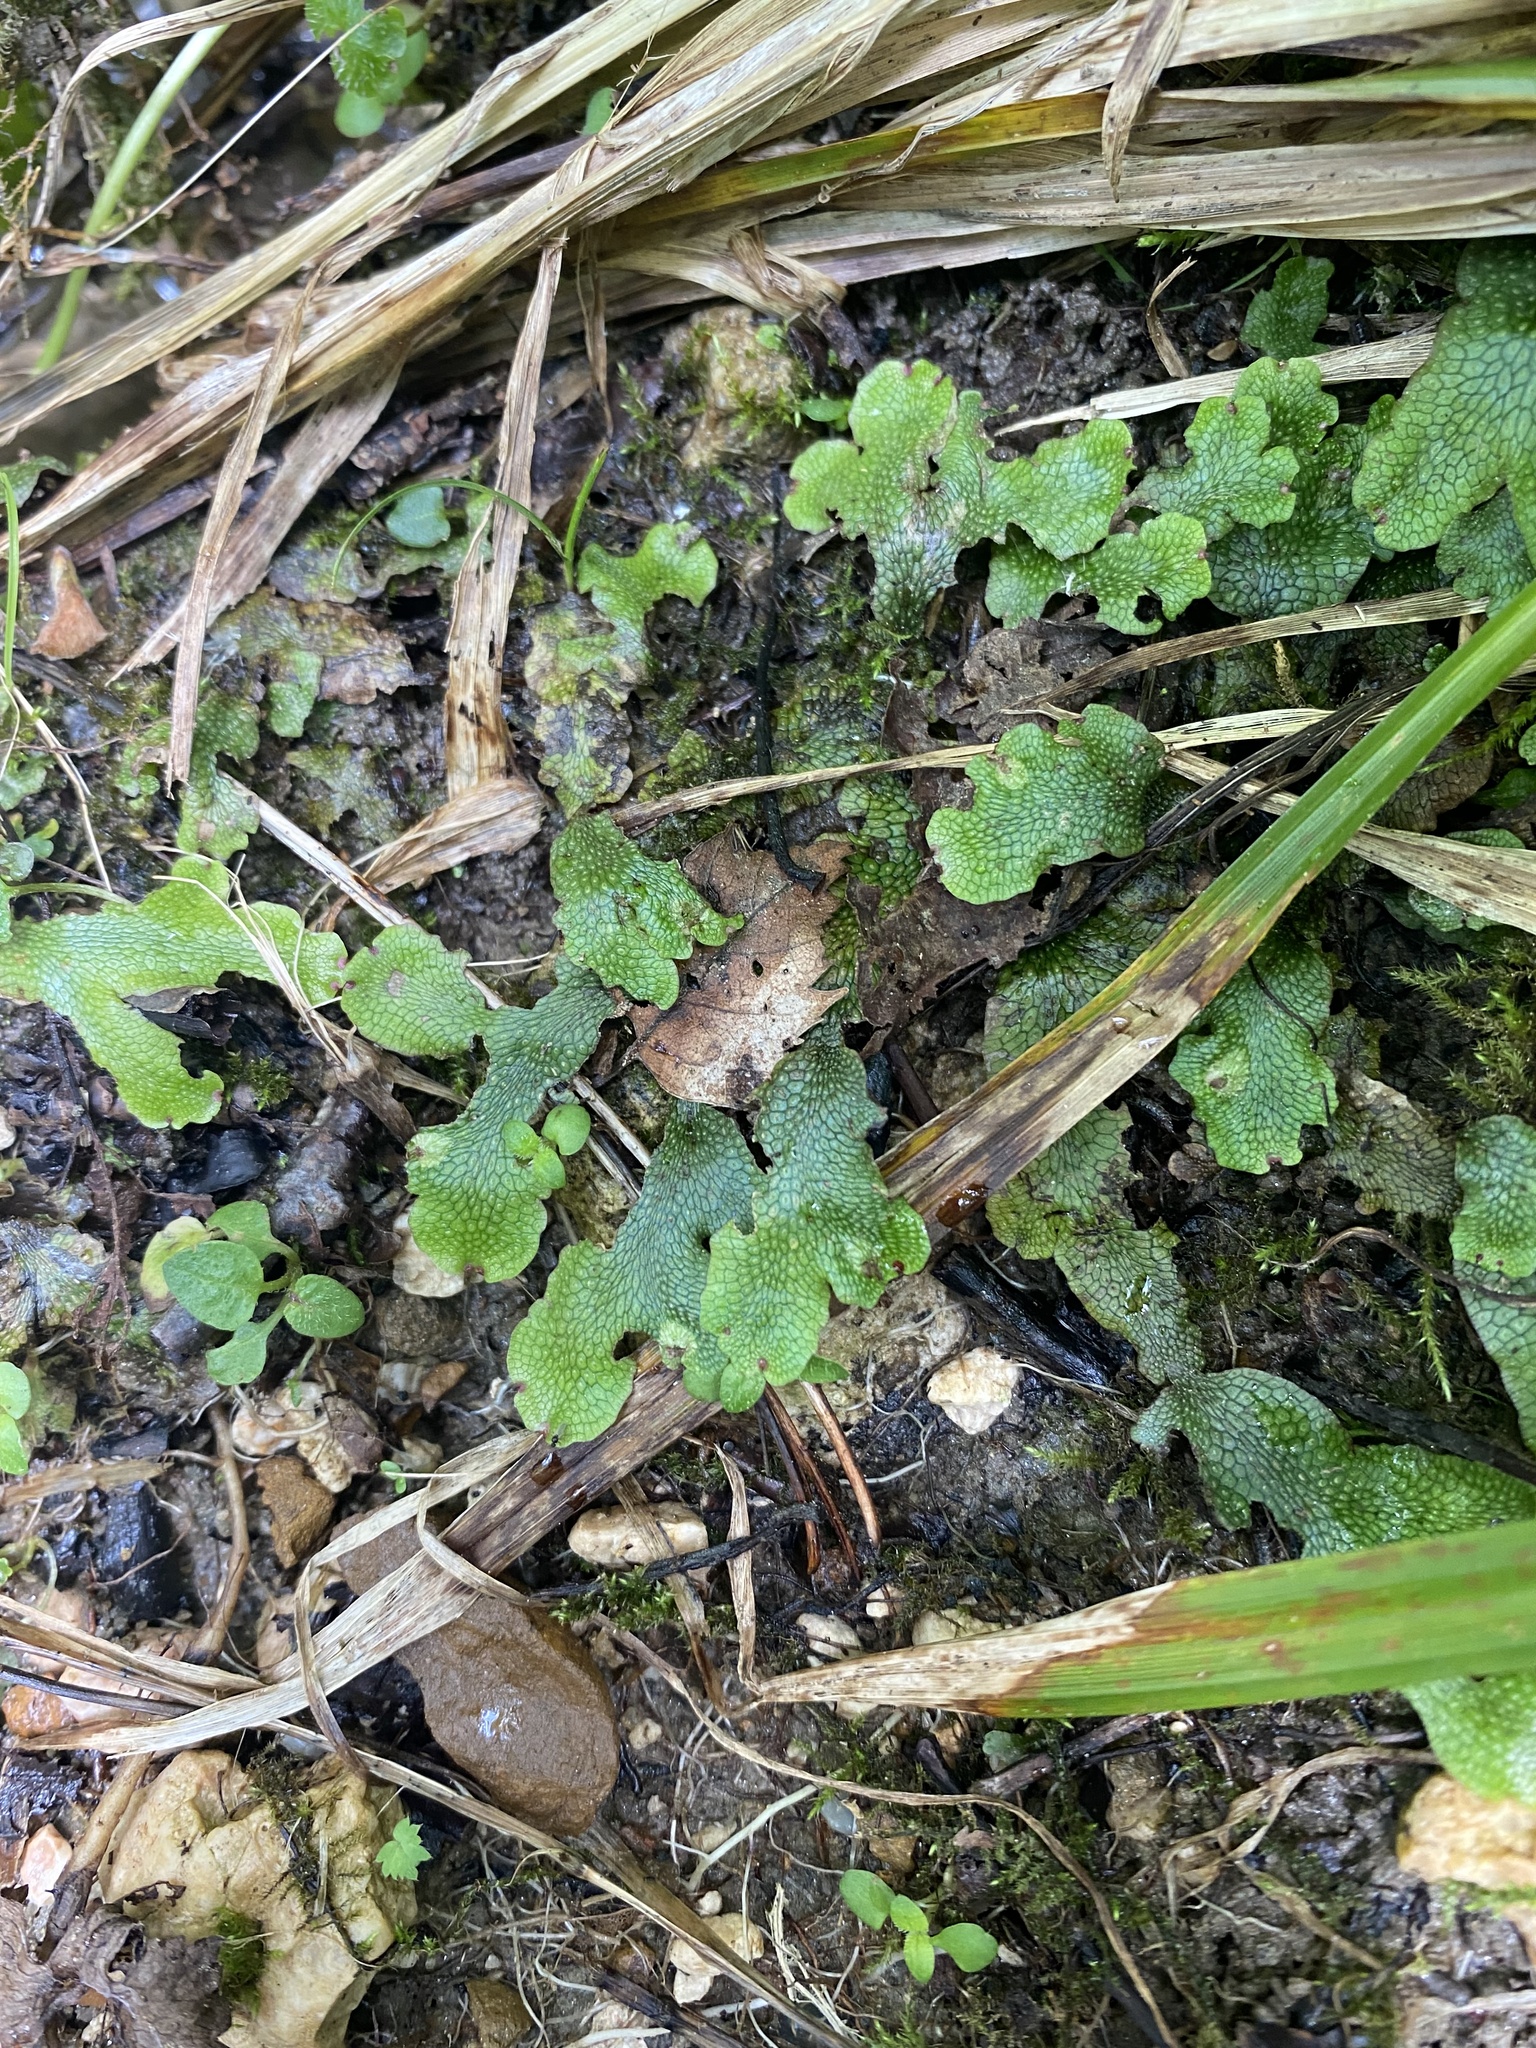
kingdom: Plantae
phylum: Marchantiophyta
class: Marchantiopsida
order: Marchantiales
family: Conocephalaceae
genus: Conocephalum
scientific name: Conocephalum salebrosum
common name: Cat-tongue liverwort
